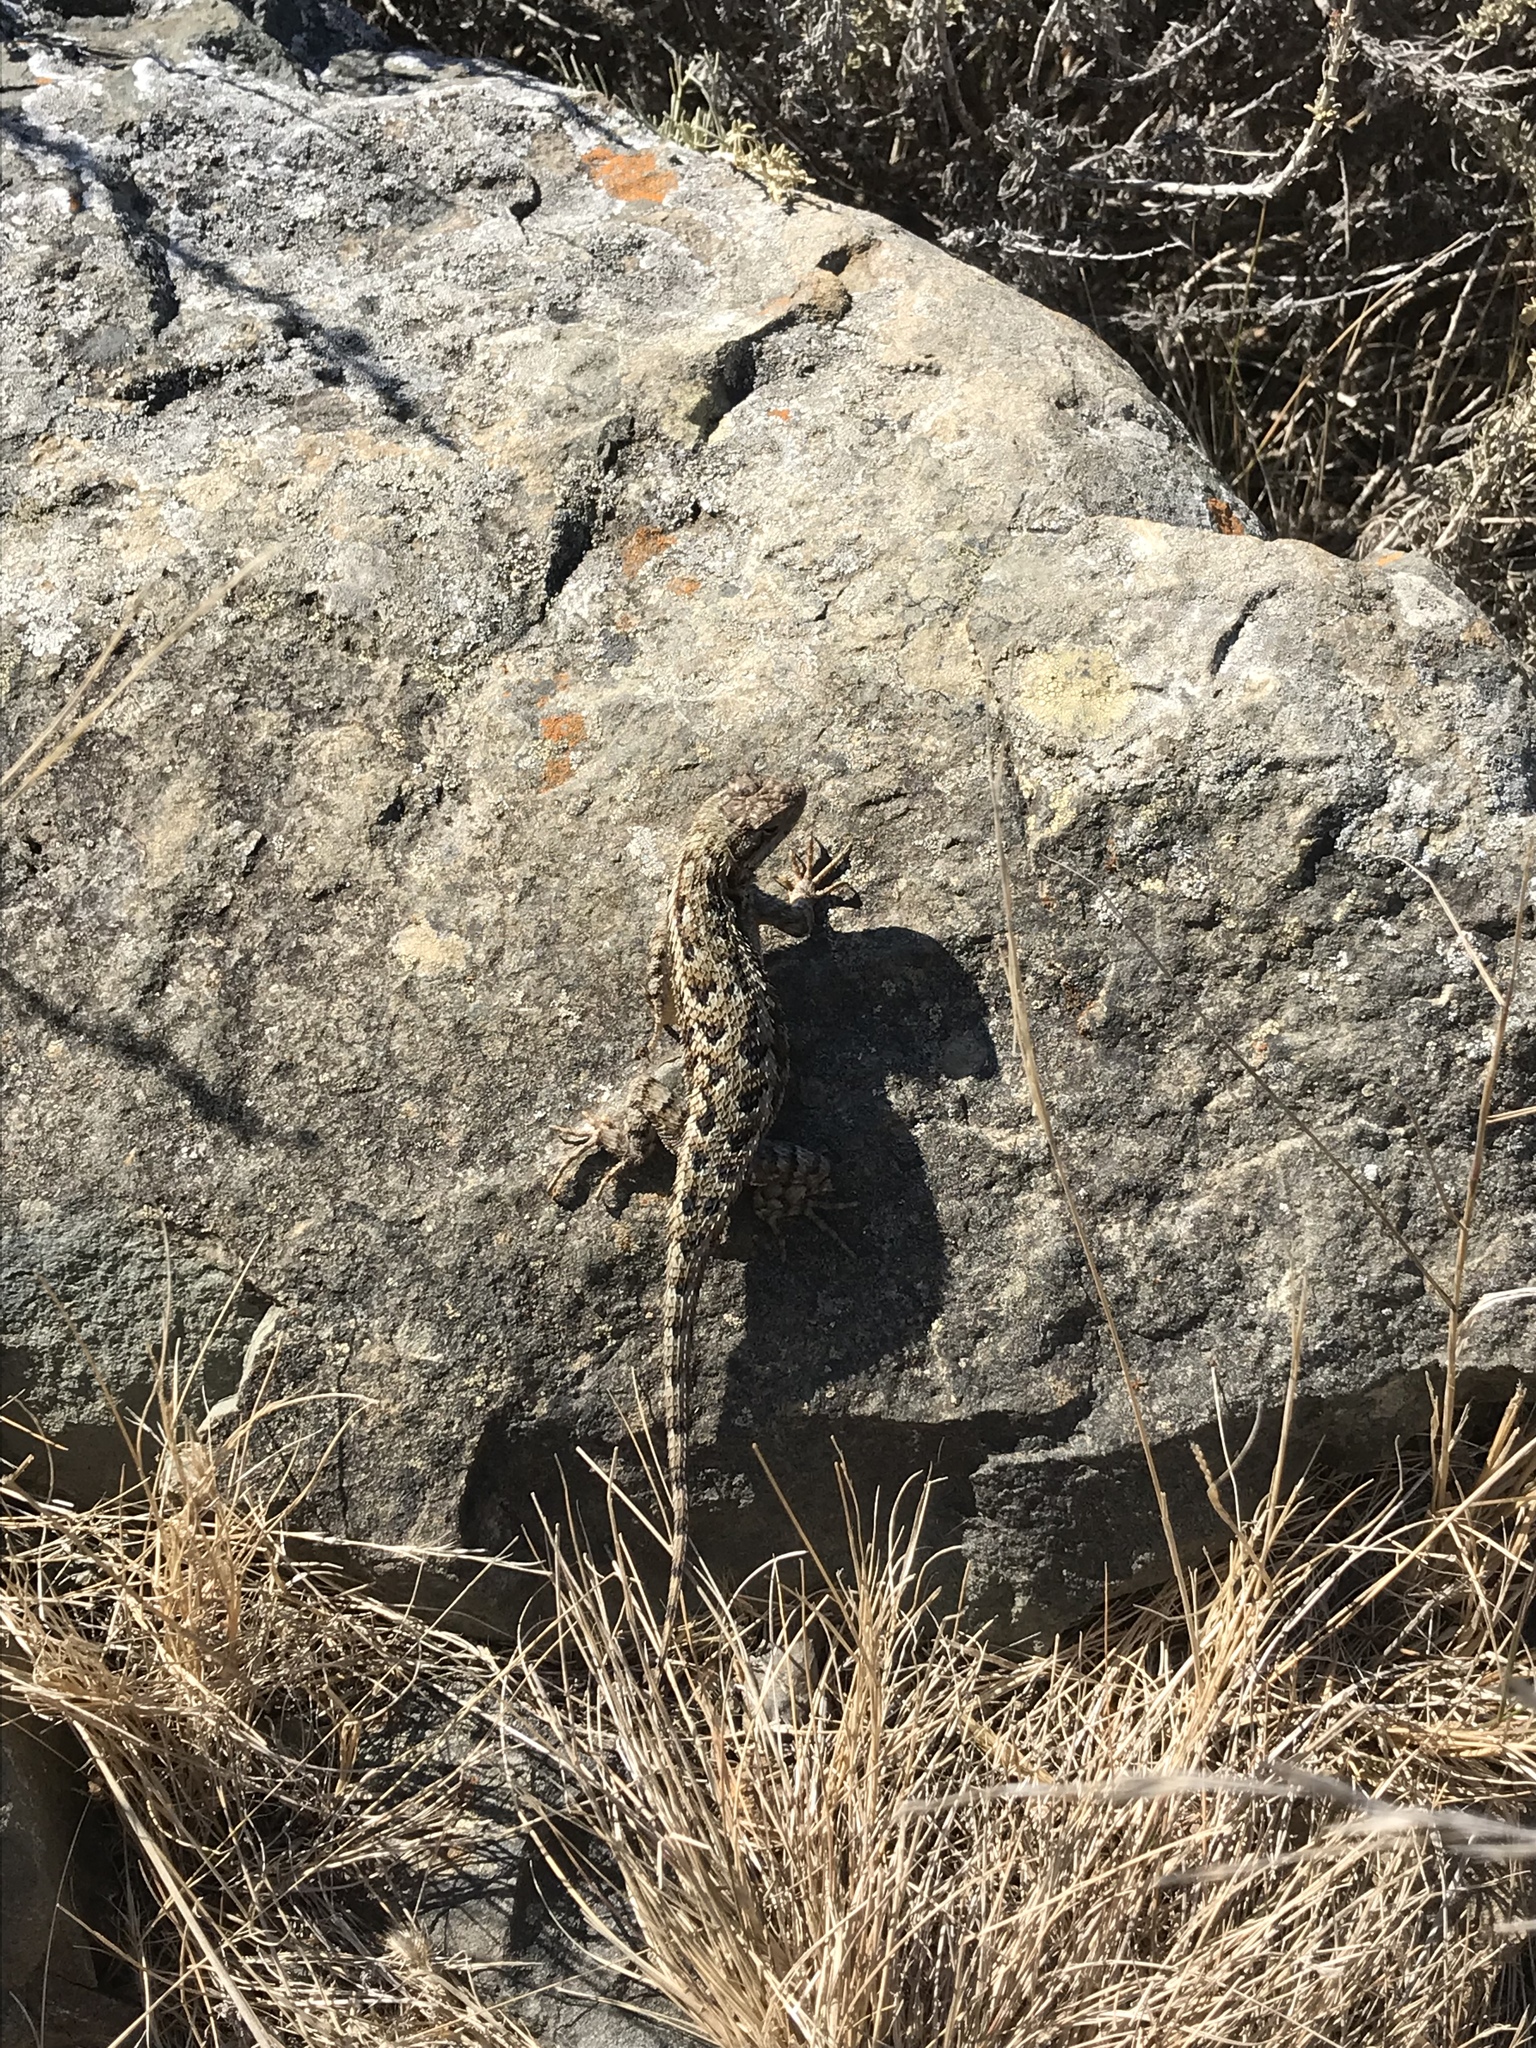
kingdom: Animalia
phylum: Chordata
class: Squamata
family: Phrynosomatidae
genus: Sceloporus
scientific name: Sceloporus occidentalis
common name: Western fence lizard
